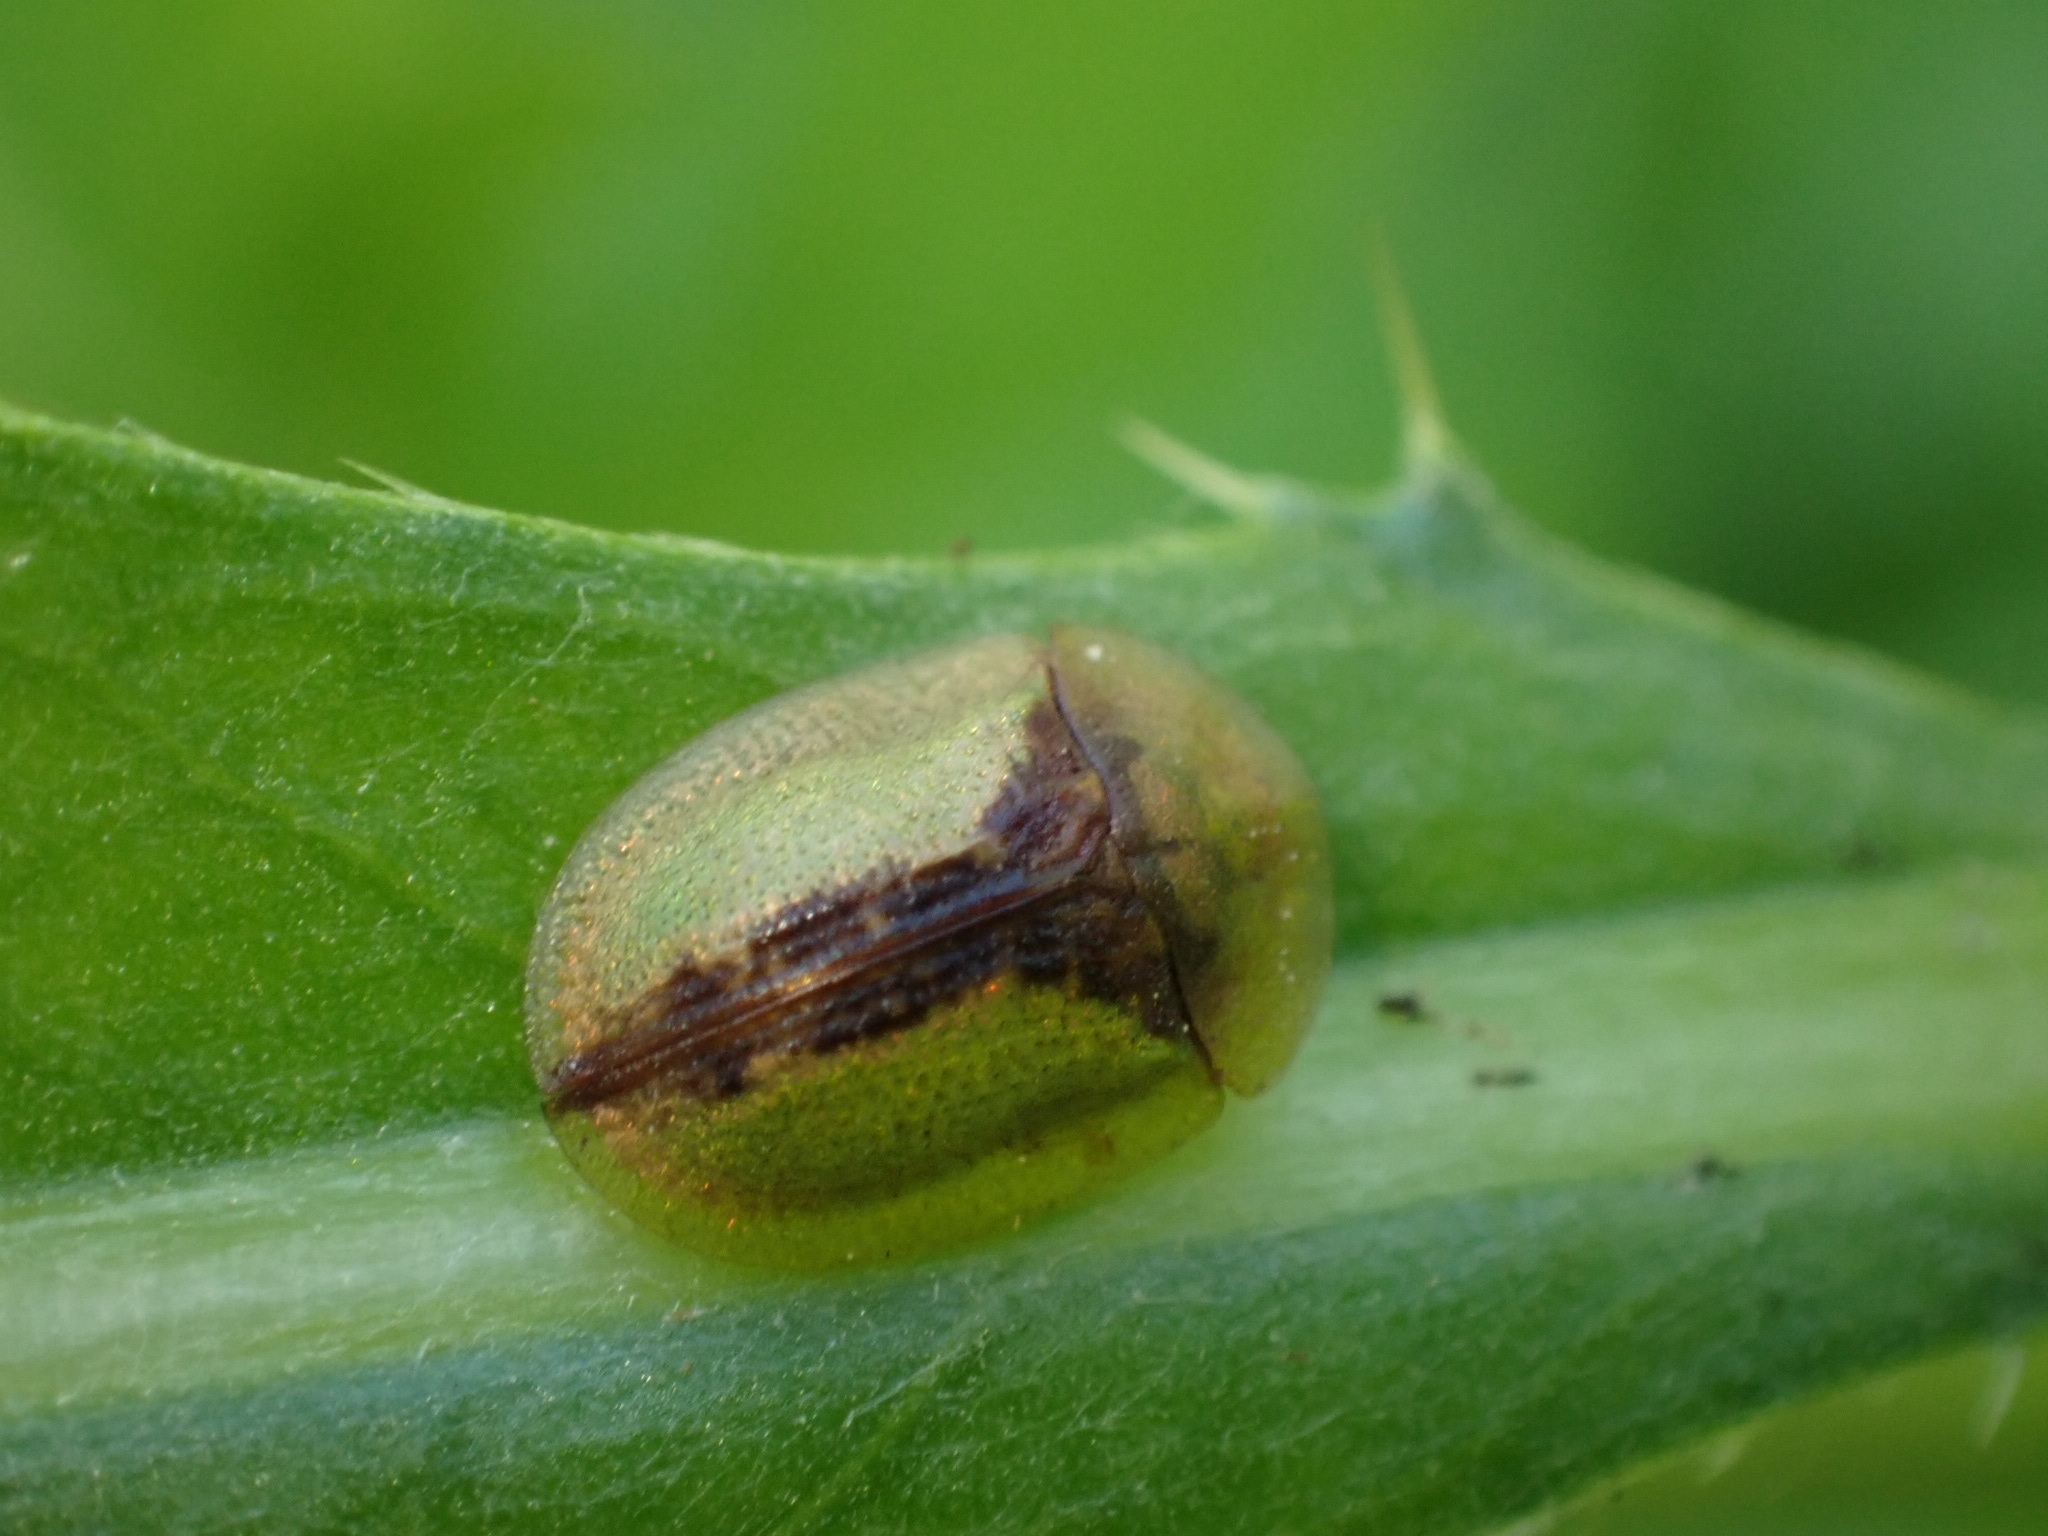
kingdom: Animalia
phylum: Arthropoda
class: Insecta
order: Coleoptera
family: Chrysomelidae
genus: Cassida
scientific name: Cassida vibex
